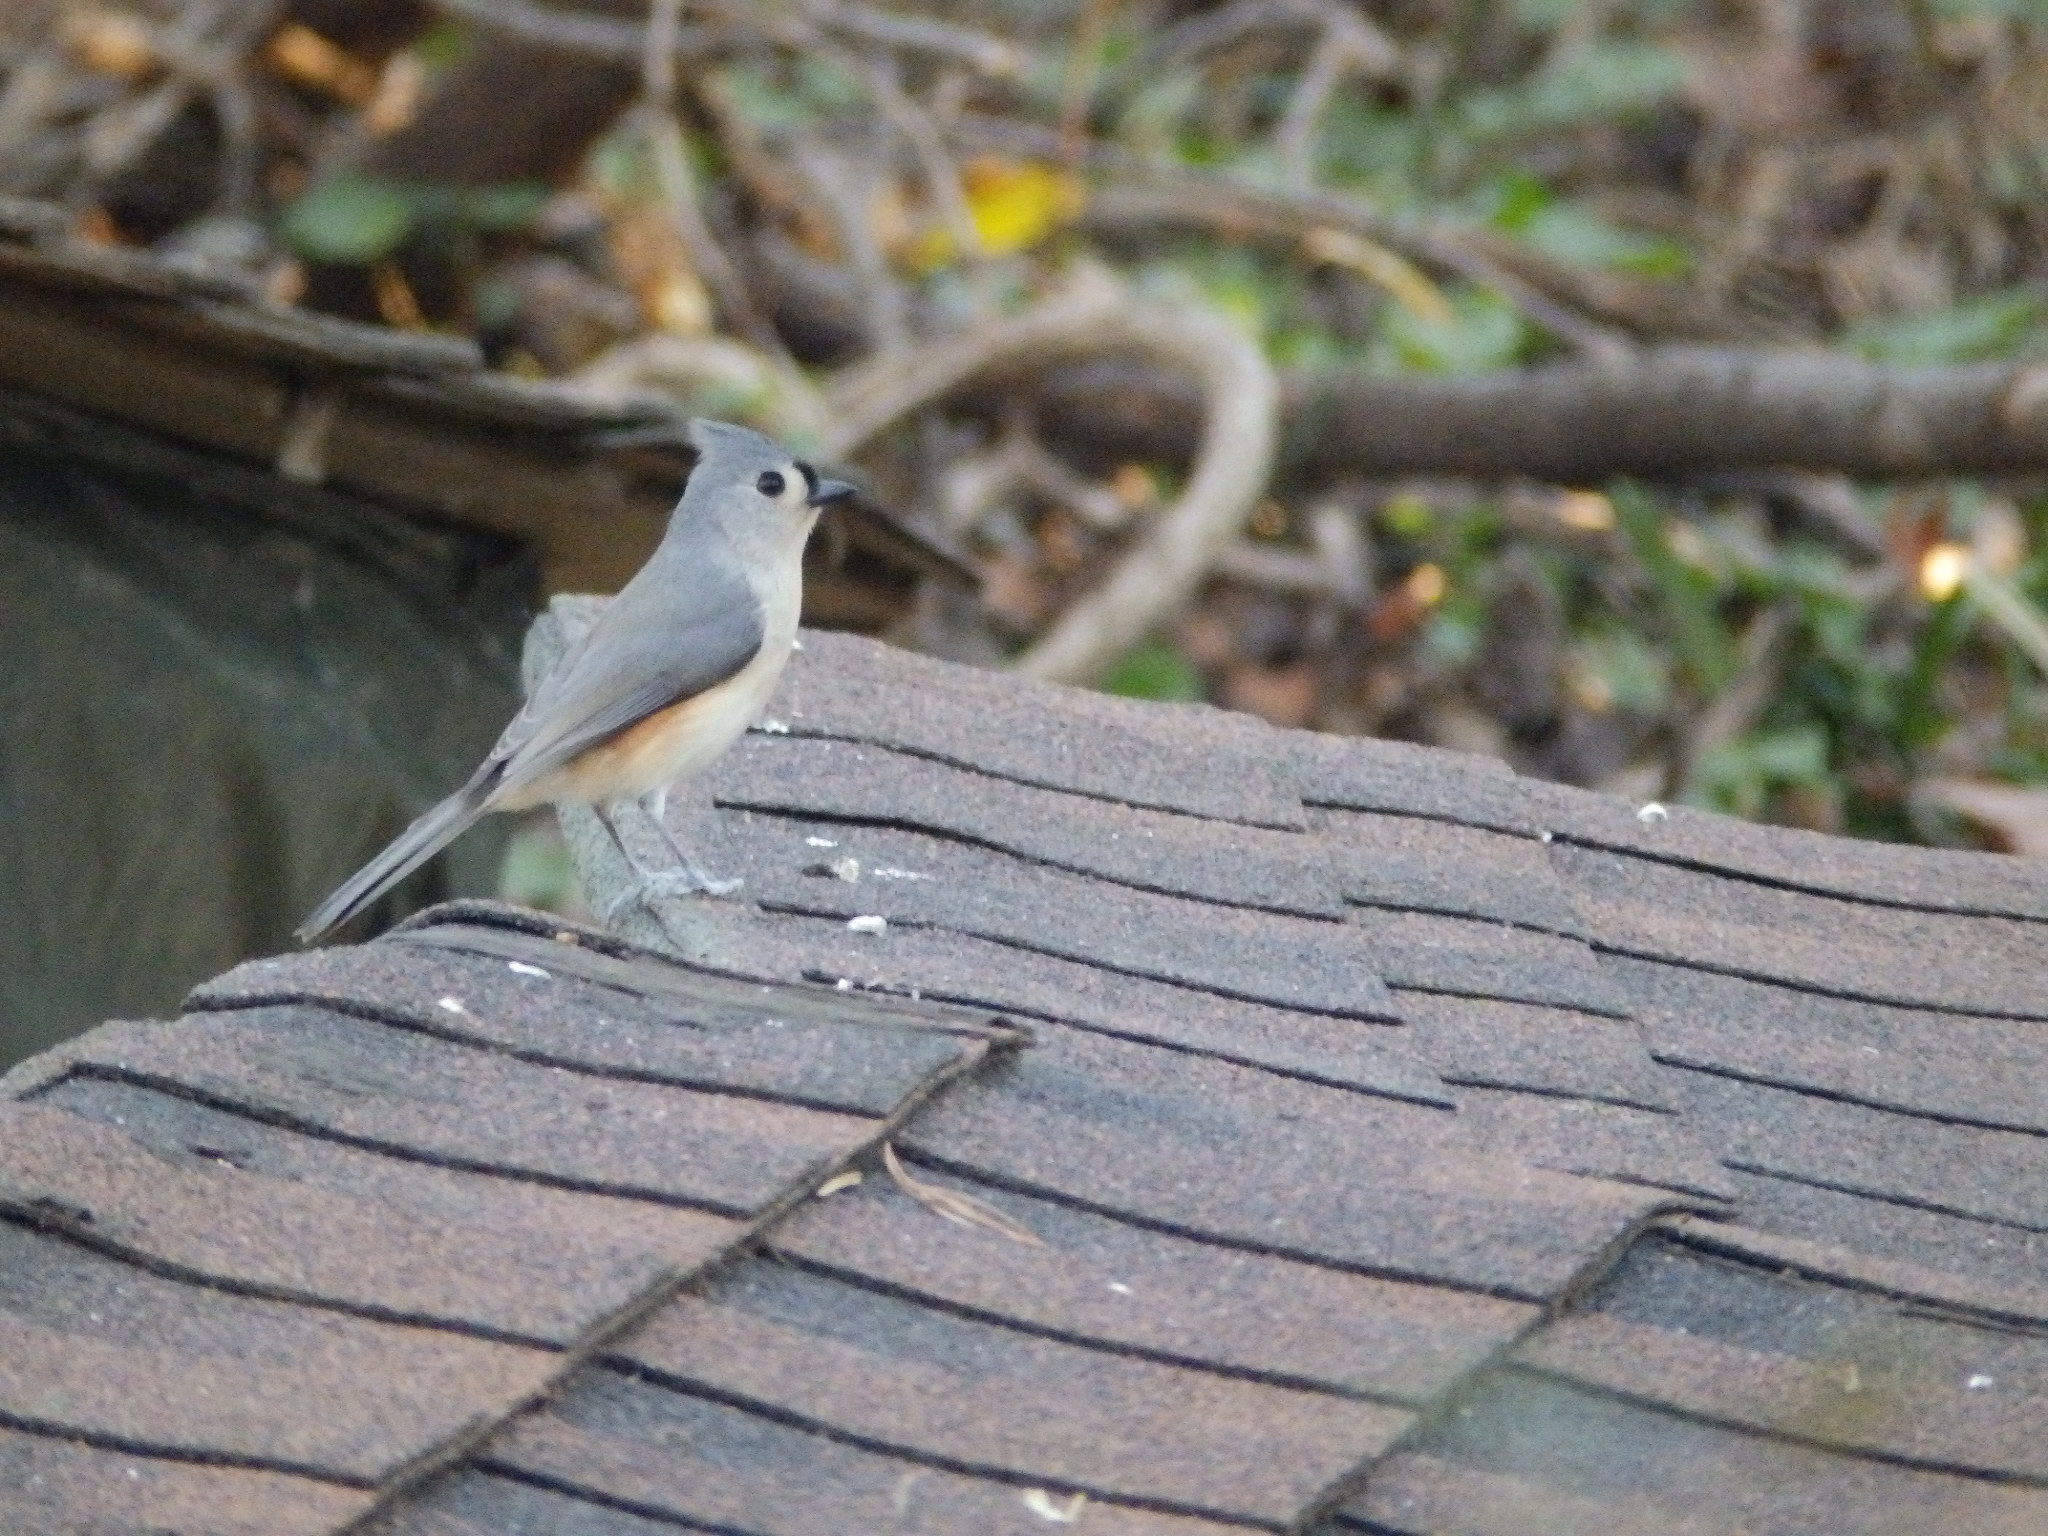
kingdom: Animalia
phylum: Chordata
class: Aves
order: Passeriformes
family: Paridae
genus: Baeolophus
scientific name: Baeolophus bicolor
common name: Tufted titmouse
